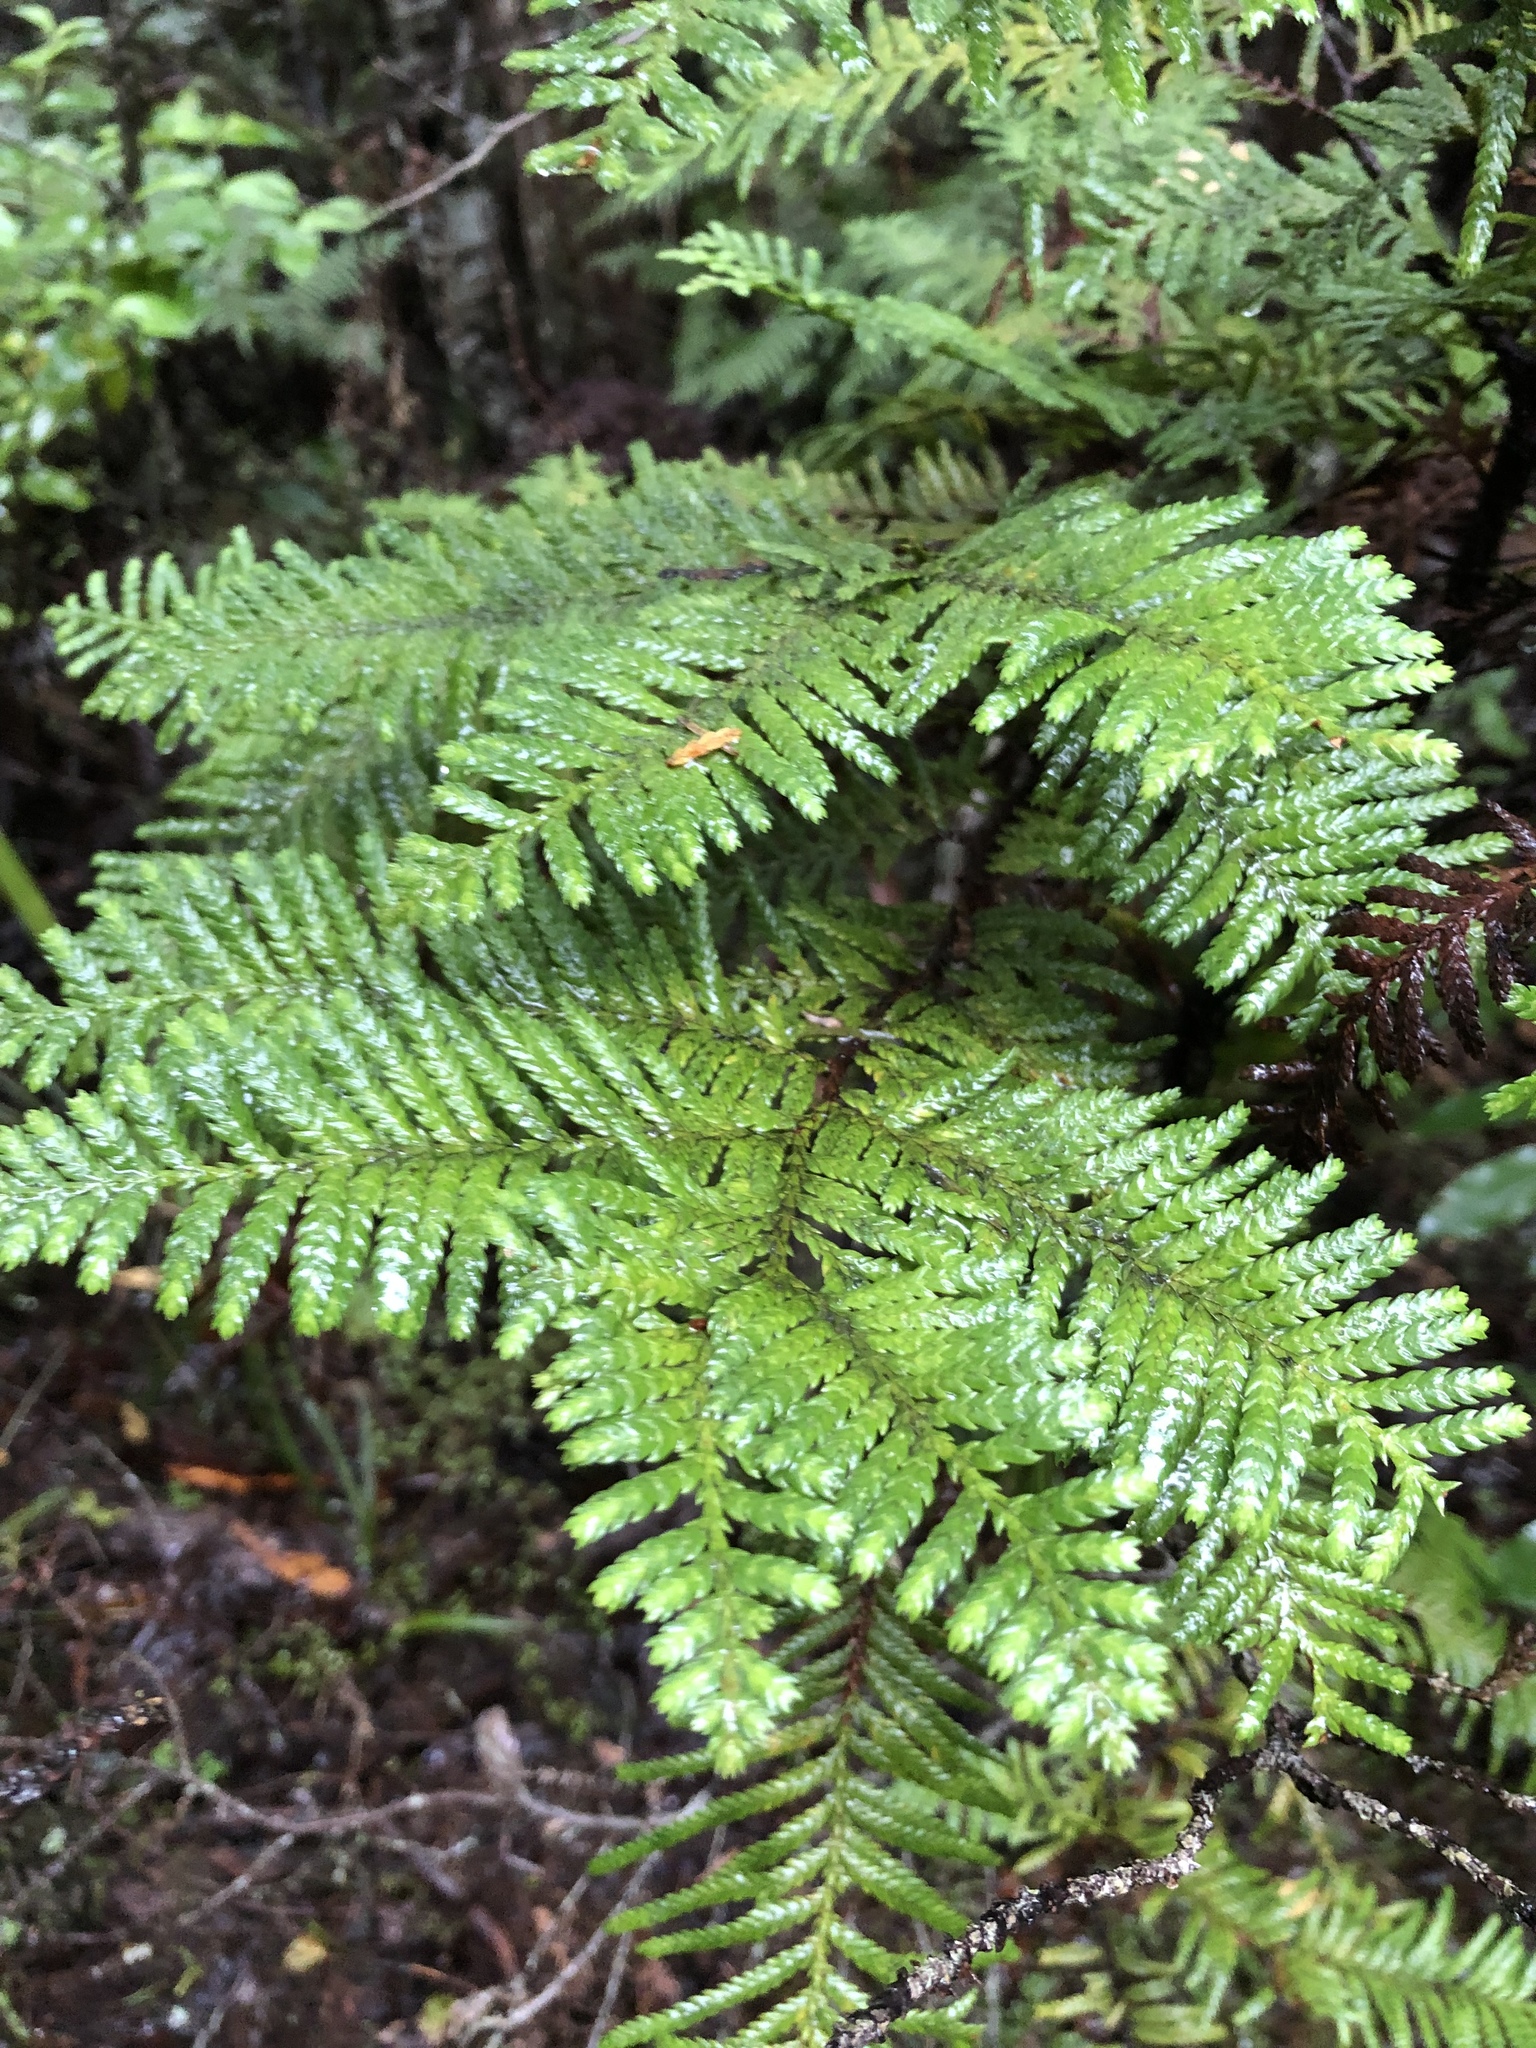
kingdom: Plantae
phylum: Tracheophyta
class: Pinopsida
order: Pinales
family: Cupressaceae
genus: Libocedrus
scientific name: Libocedrus plumosa
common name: New zealand cedar
